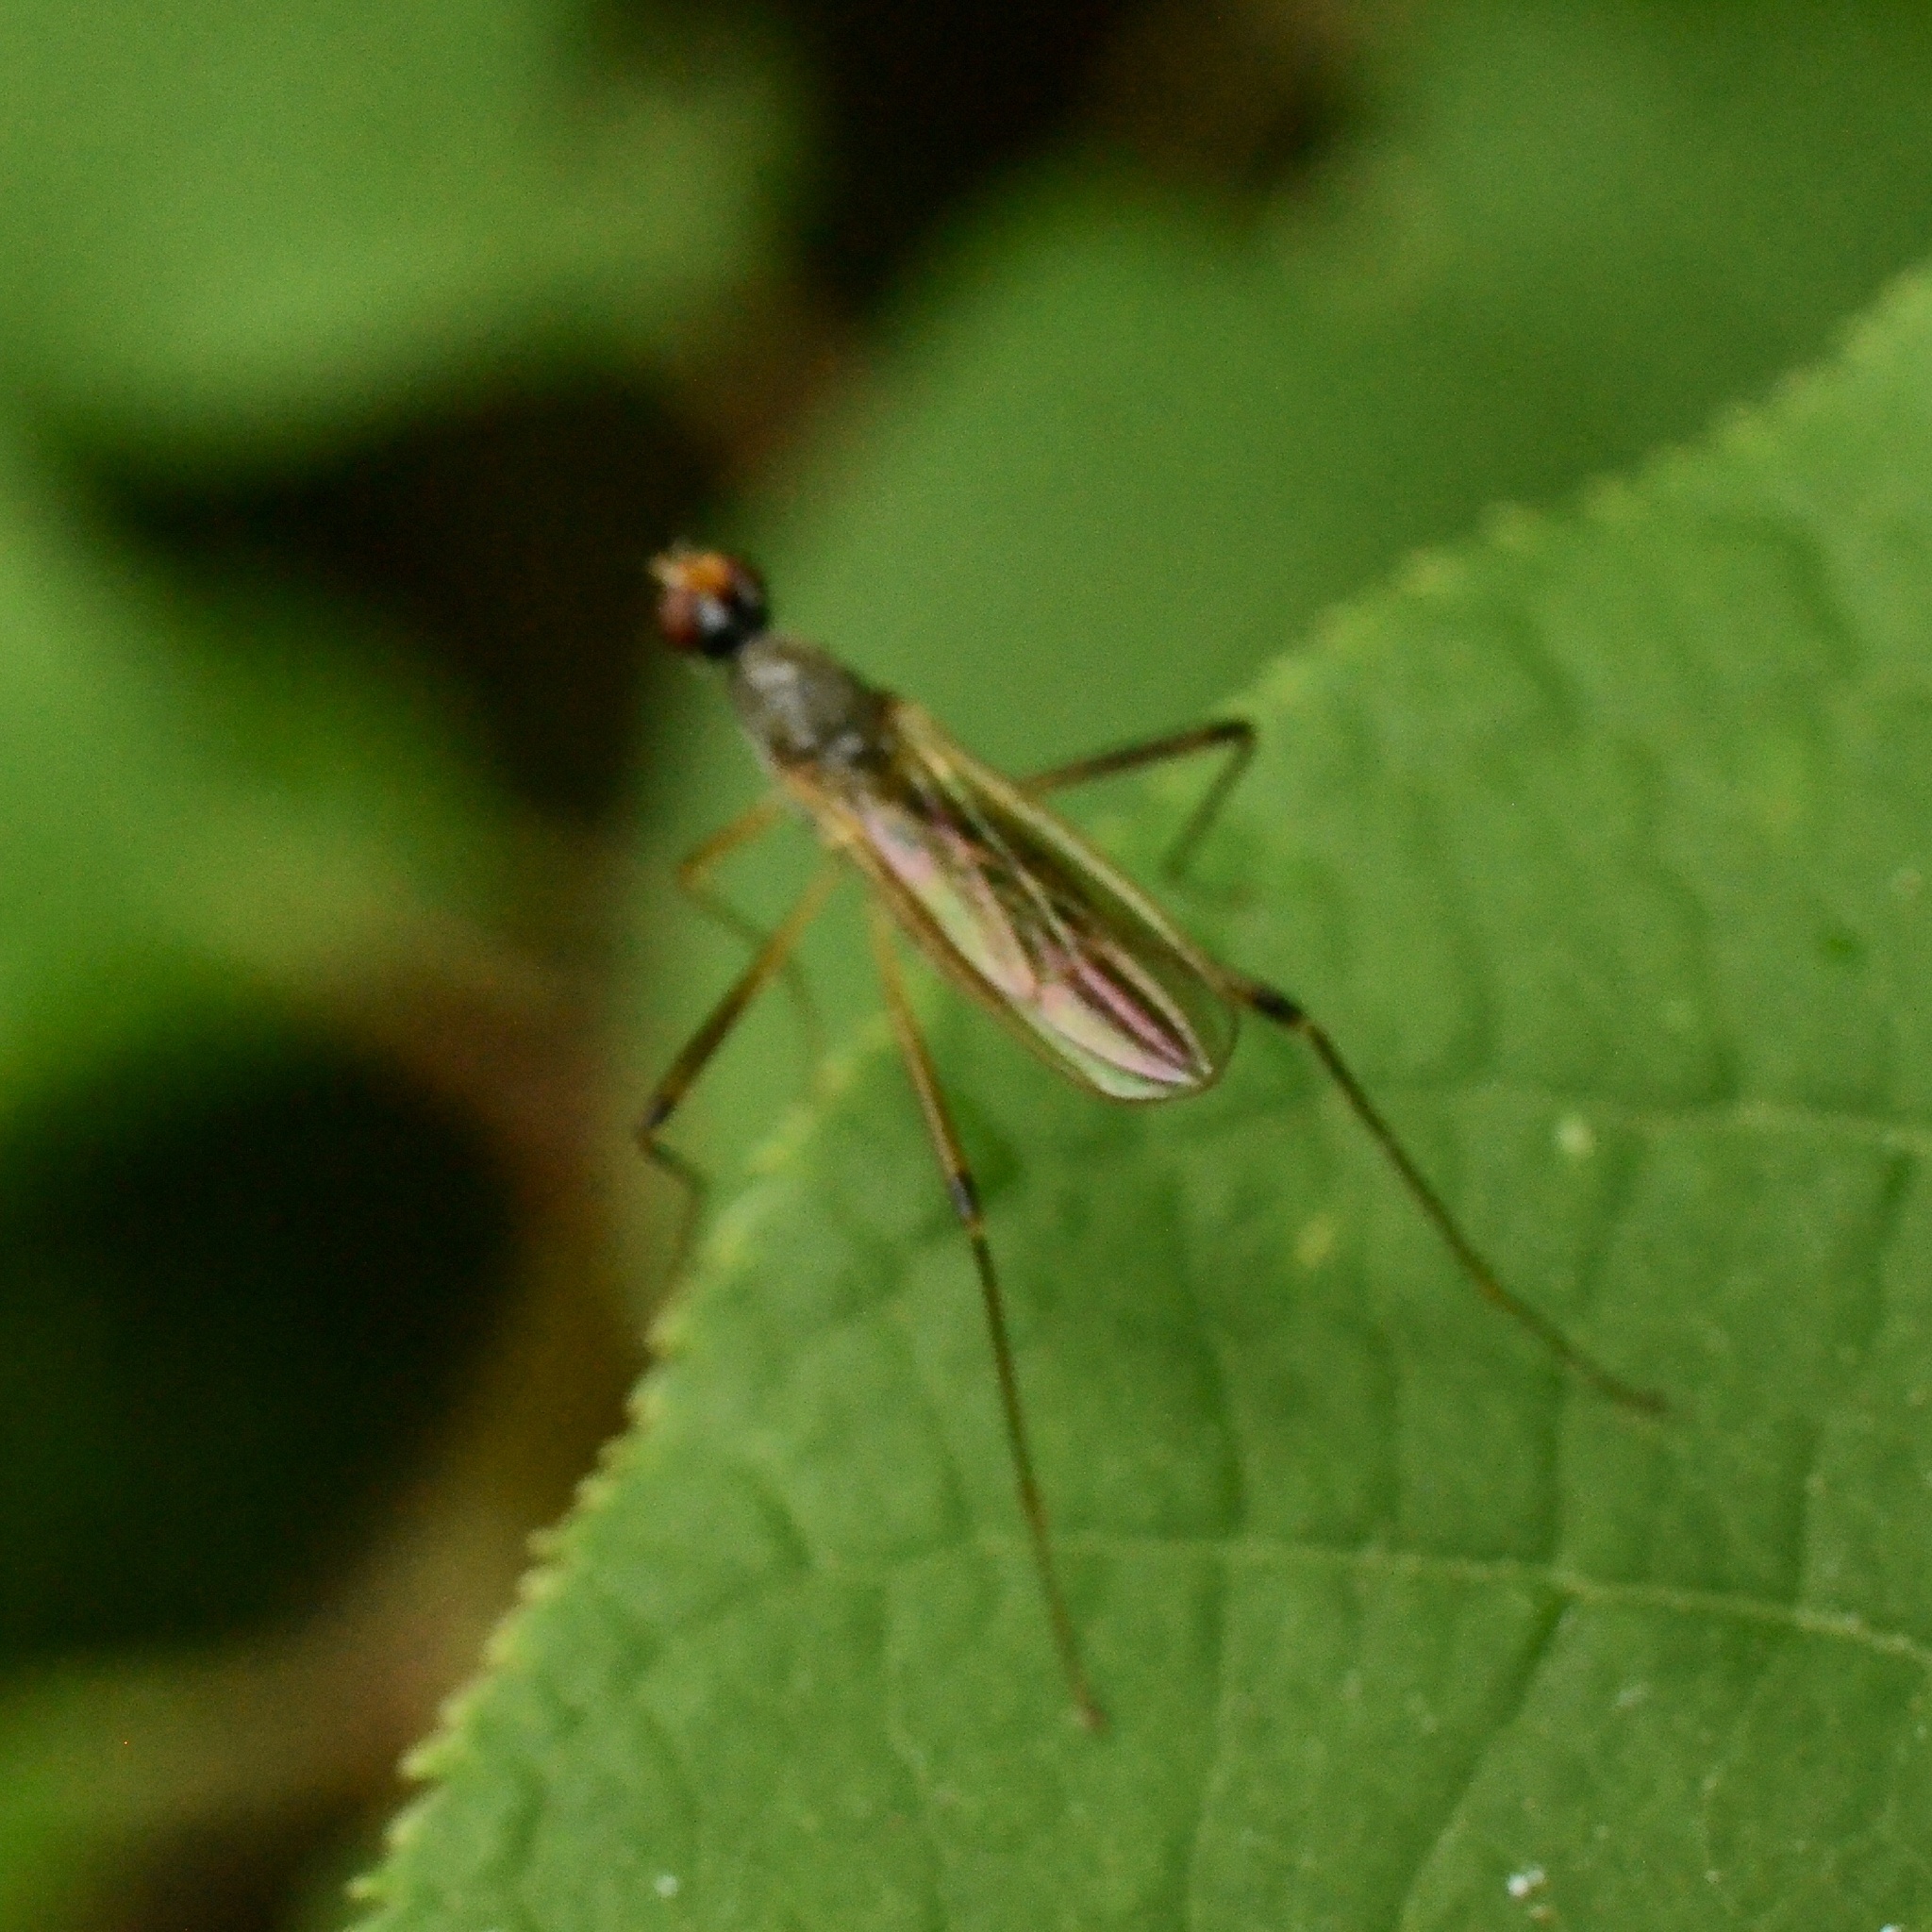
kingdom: Animalia
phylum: Arthropoda
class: Insecta
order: Diptera
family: Micropezidae
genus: Compsobata
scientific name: Compsobata cibaria
